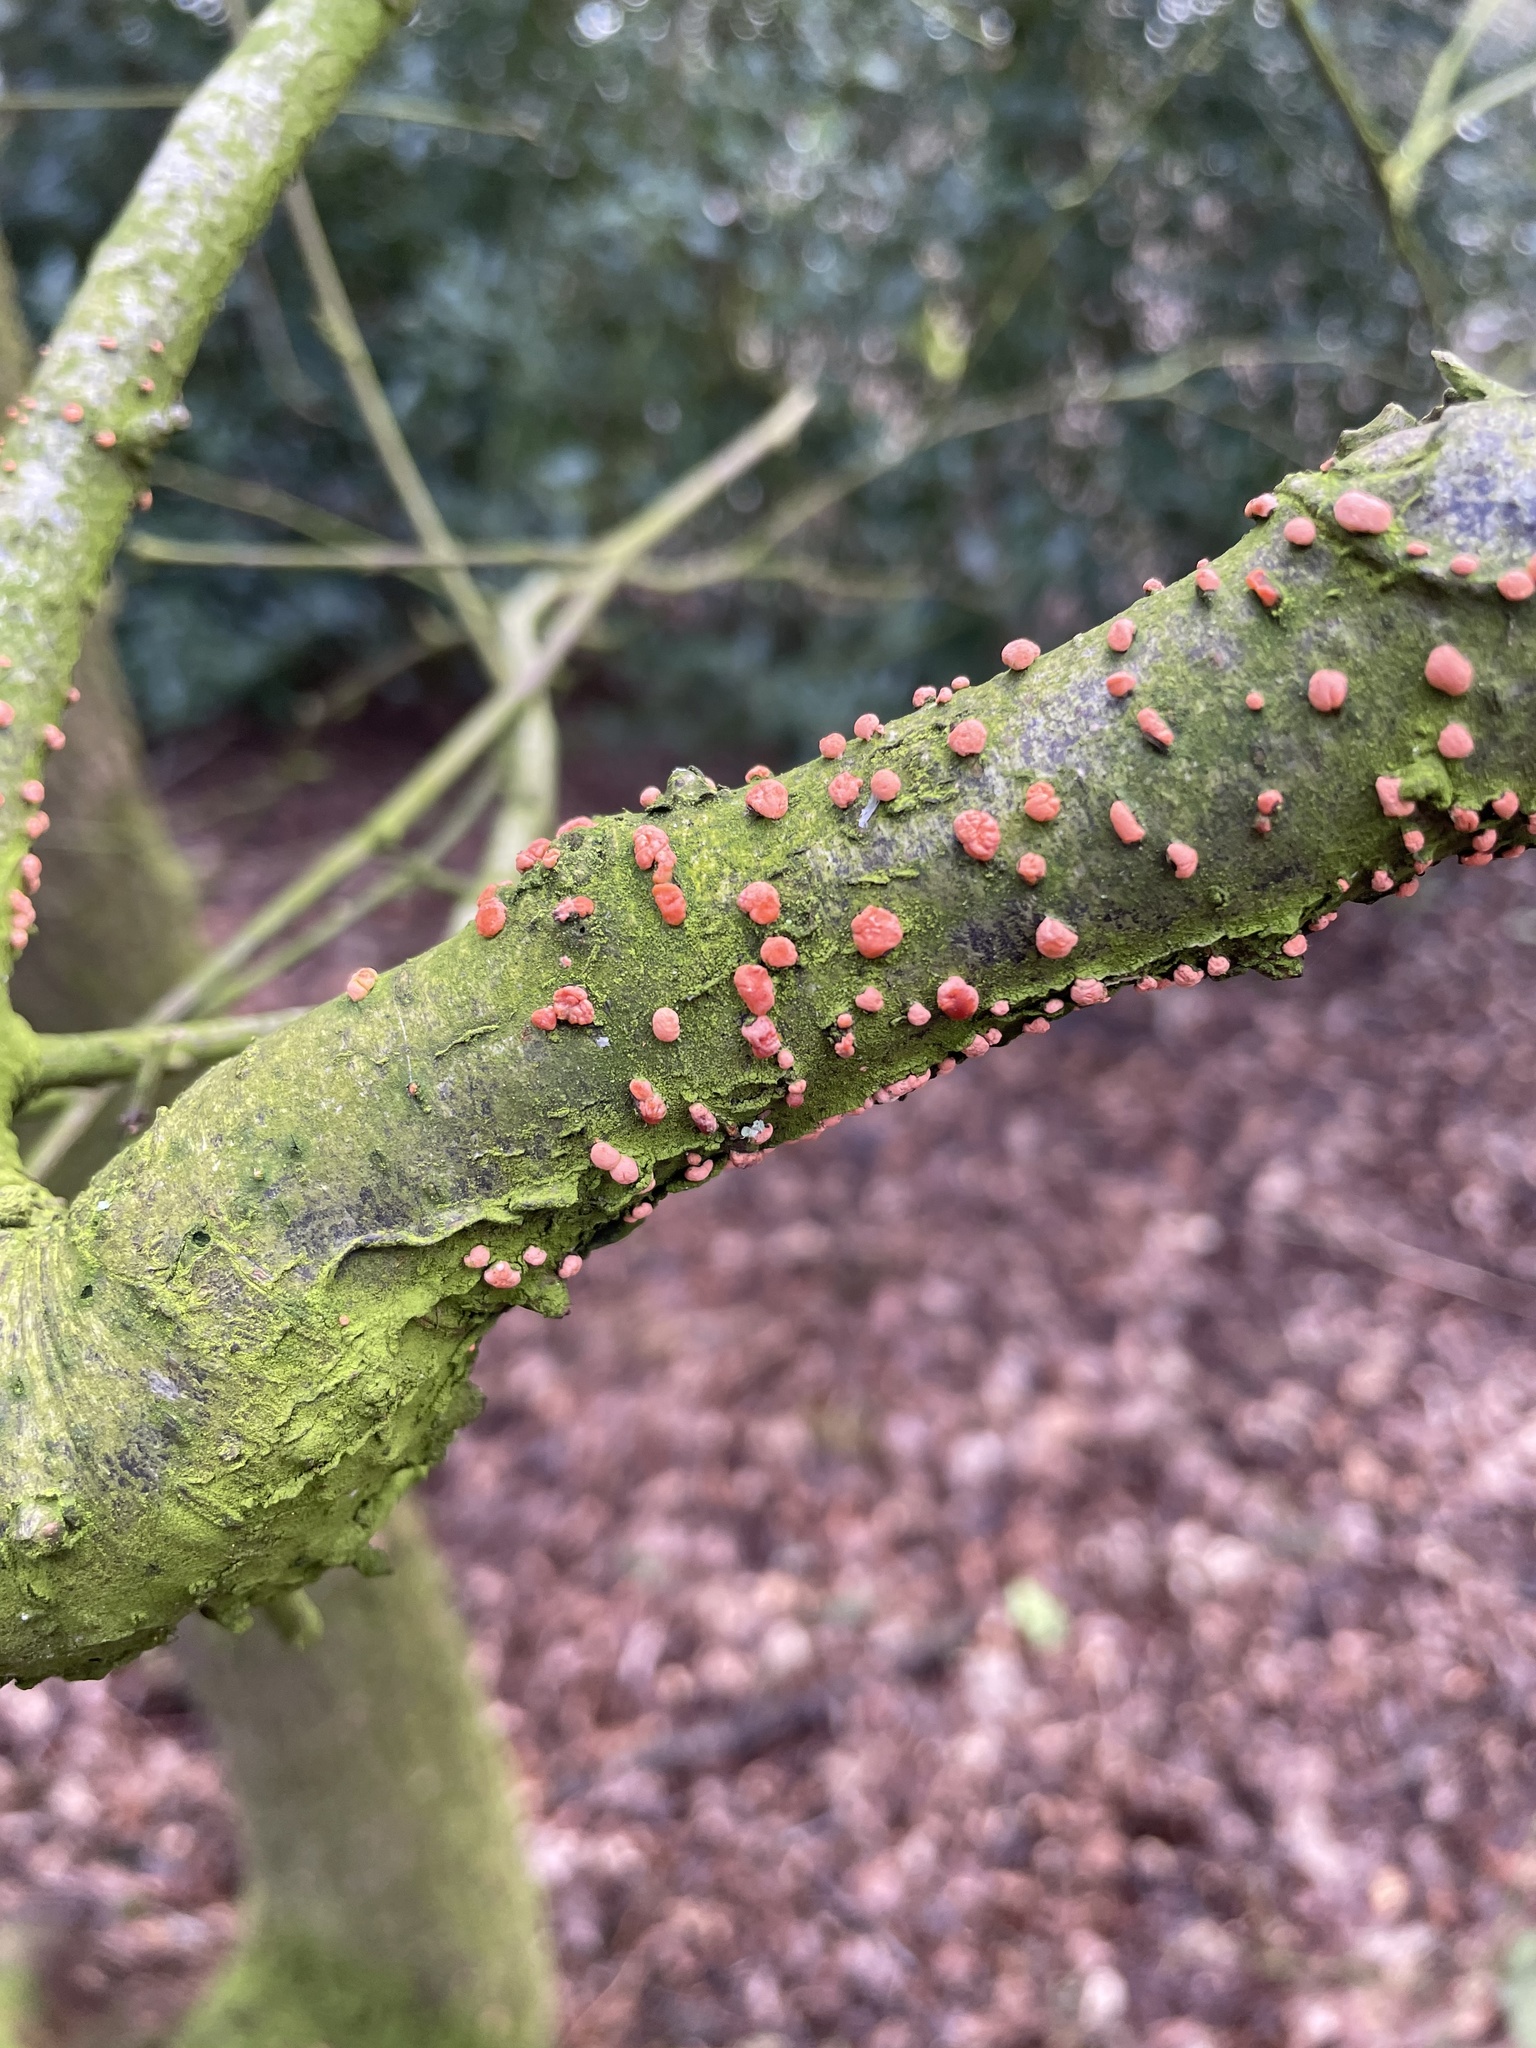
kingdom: Fungi
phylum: Ascomycota
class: Sordariomycetes
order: Hypocreales
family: Nectriaceae
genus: Nectria
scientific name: Nectria cinnabarina
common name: Coral spot
